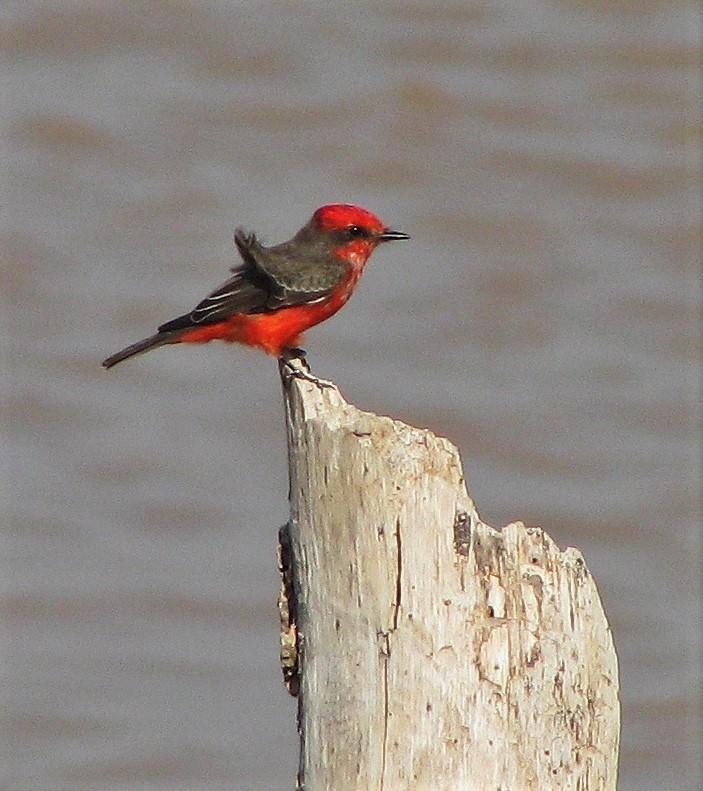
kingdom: Animalia
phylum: Chordata
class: Aves
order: Passeriformes
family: Tyrannidae
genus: Pyrocephalus
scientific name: Pyrocephalus rubinus
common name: Vermilion flycatcher
